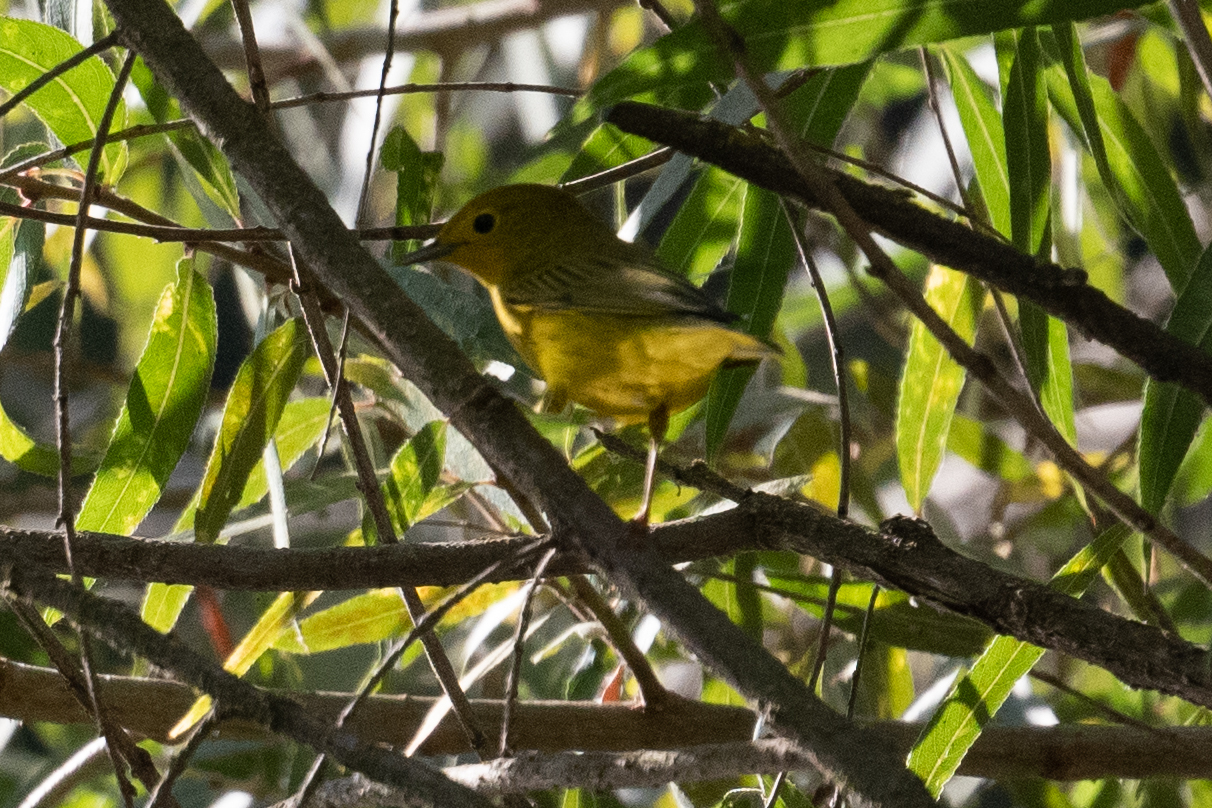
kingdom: Animalia
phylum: Chordata
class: Aves
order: Passeriformes
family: Parulidae
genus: Setophaga
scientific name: Setophaga petechia
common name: Yellow warbler
